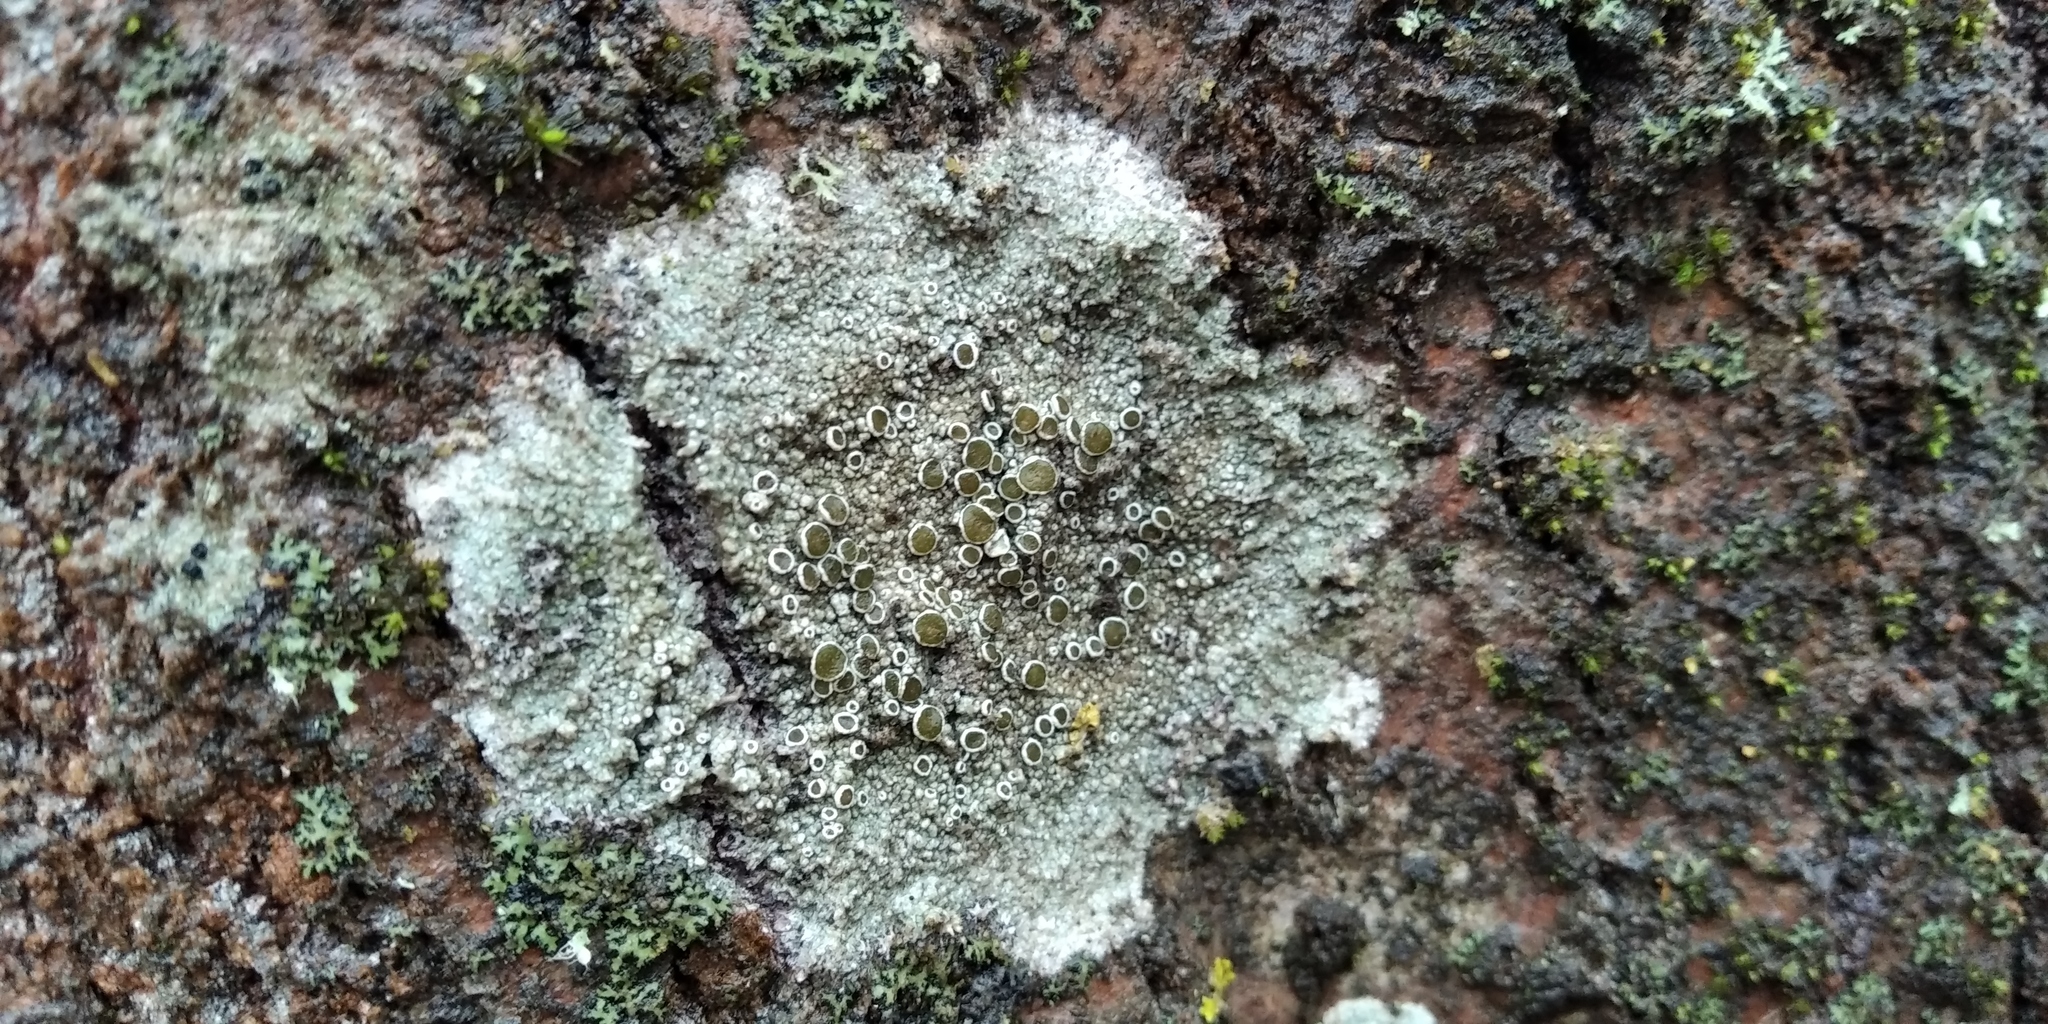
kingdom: Fungi
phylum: Ascomycota
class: Lecanoromycetes
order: Lecanorales
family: Lecanoraceae
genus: Lecanora
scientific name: Lecanora chlarotera
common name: Brown rim-lichen
